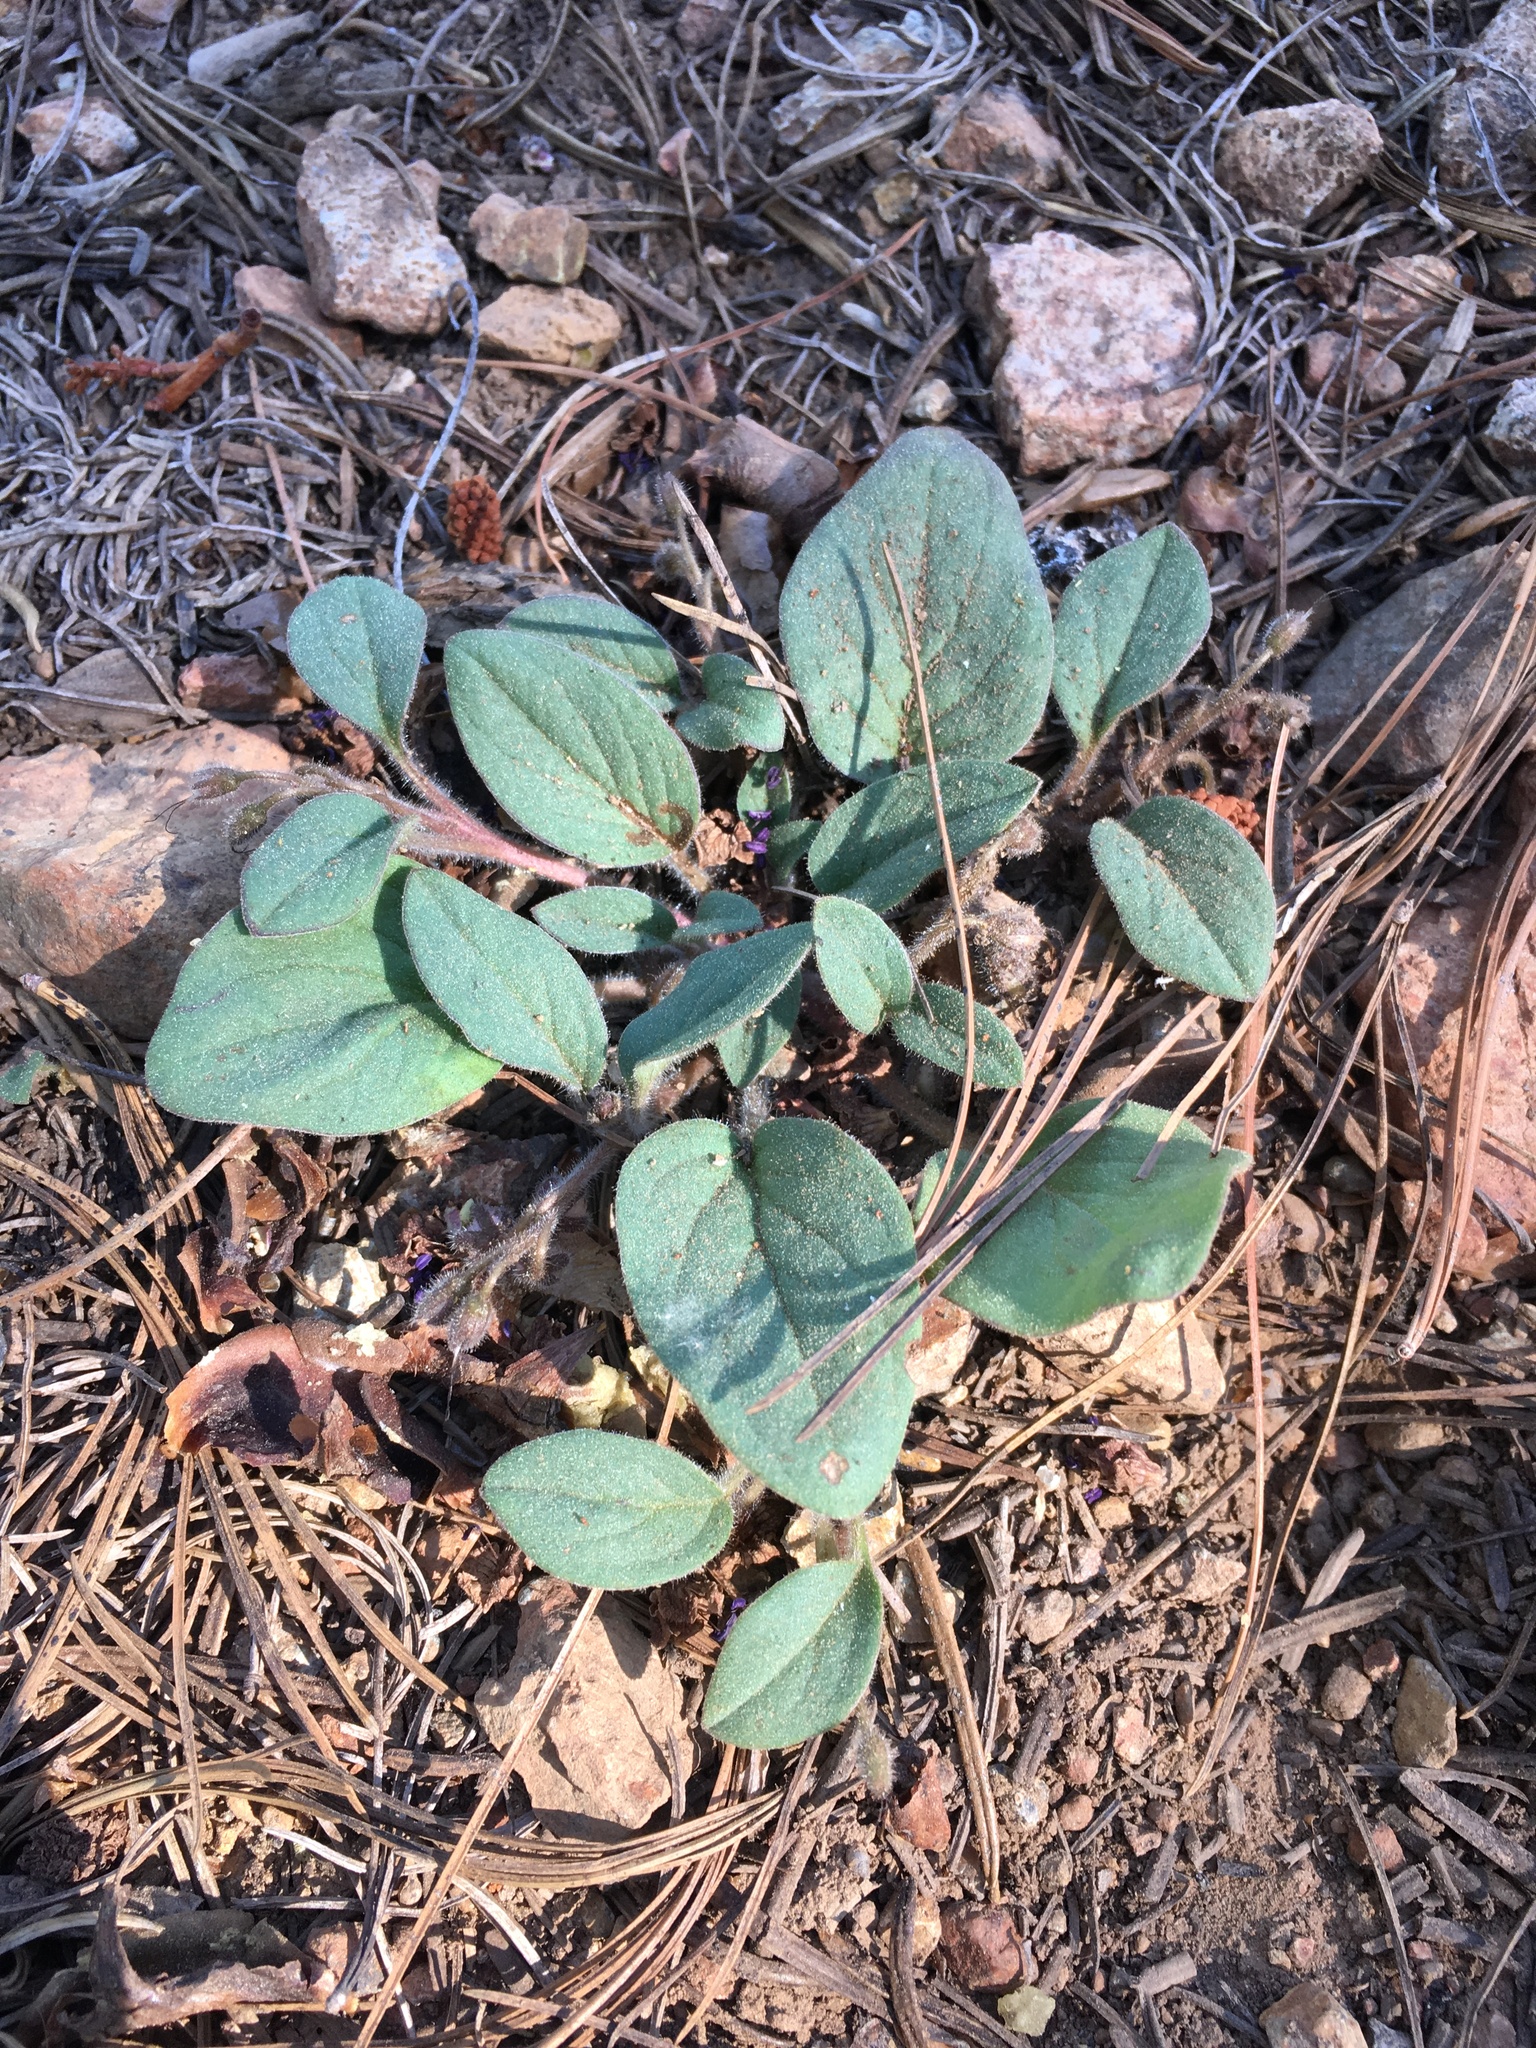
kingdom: Plantae
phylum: Tracheophyta
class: Magnoliopsida
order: Boraginales
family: Hydrophyllaceae
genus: Howellanthus
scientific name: Howellanthus dalesianus
